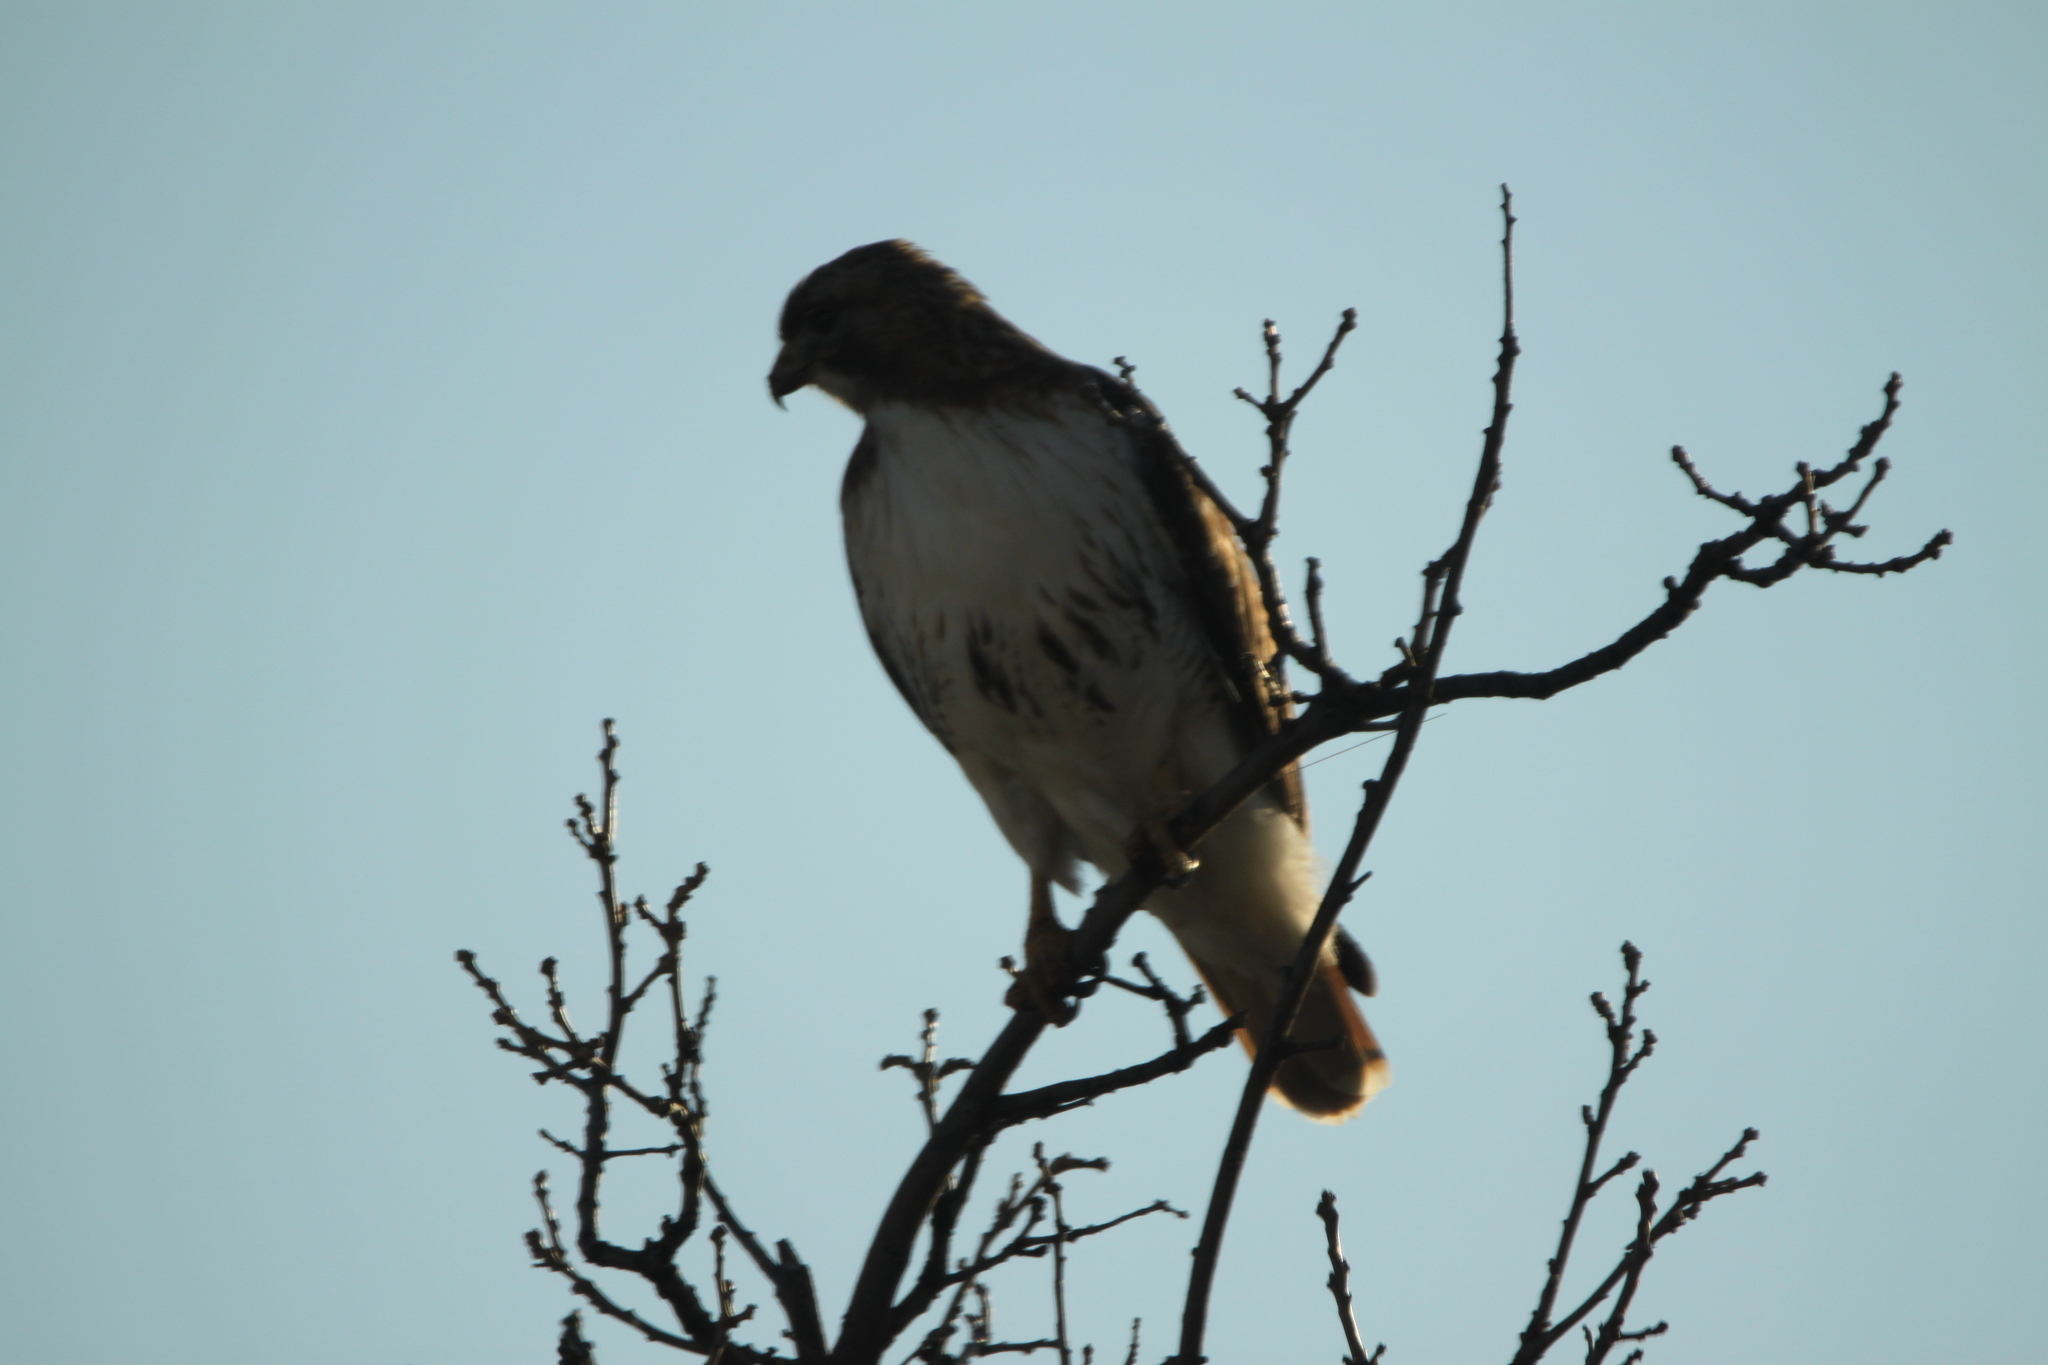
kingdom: Animalia
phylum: Chordata
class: Aves
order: Accipitriformes
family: Accipitridae
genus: Buteo
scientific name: Buteo jamaicensis
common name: Red-tailed hawk
